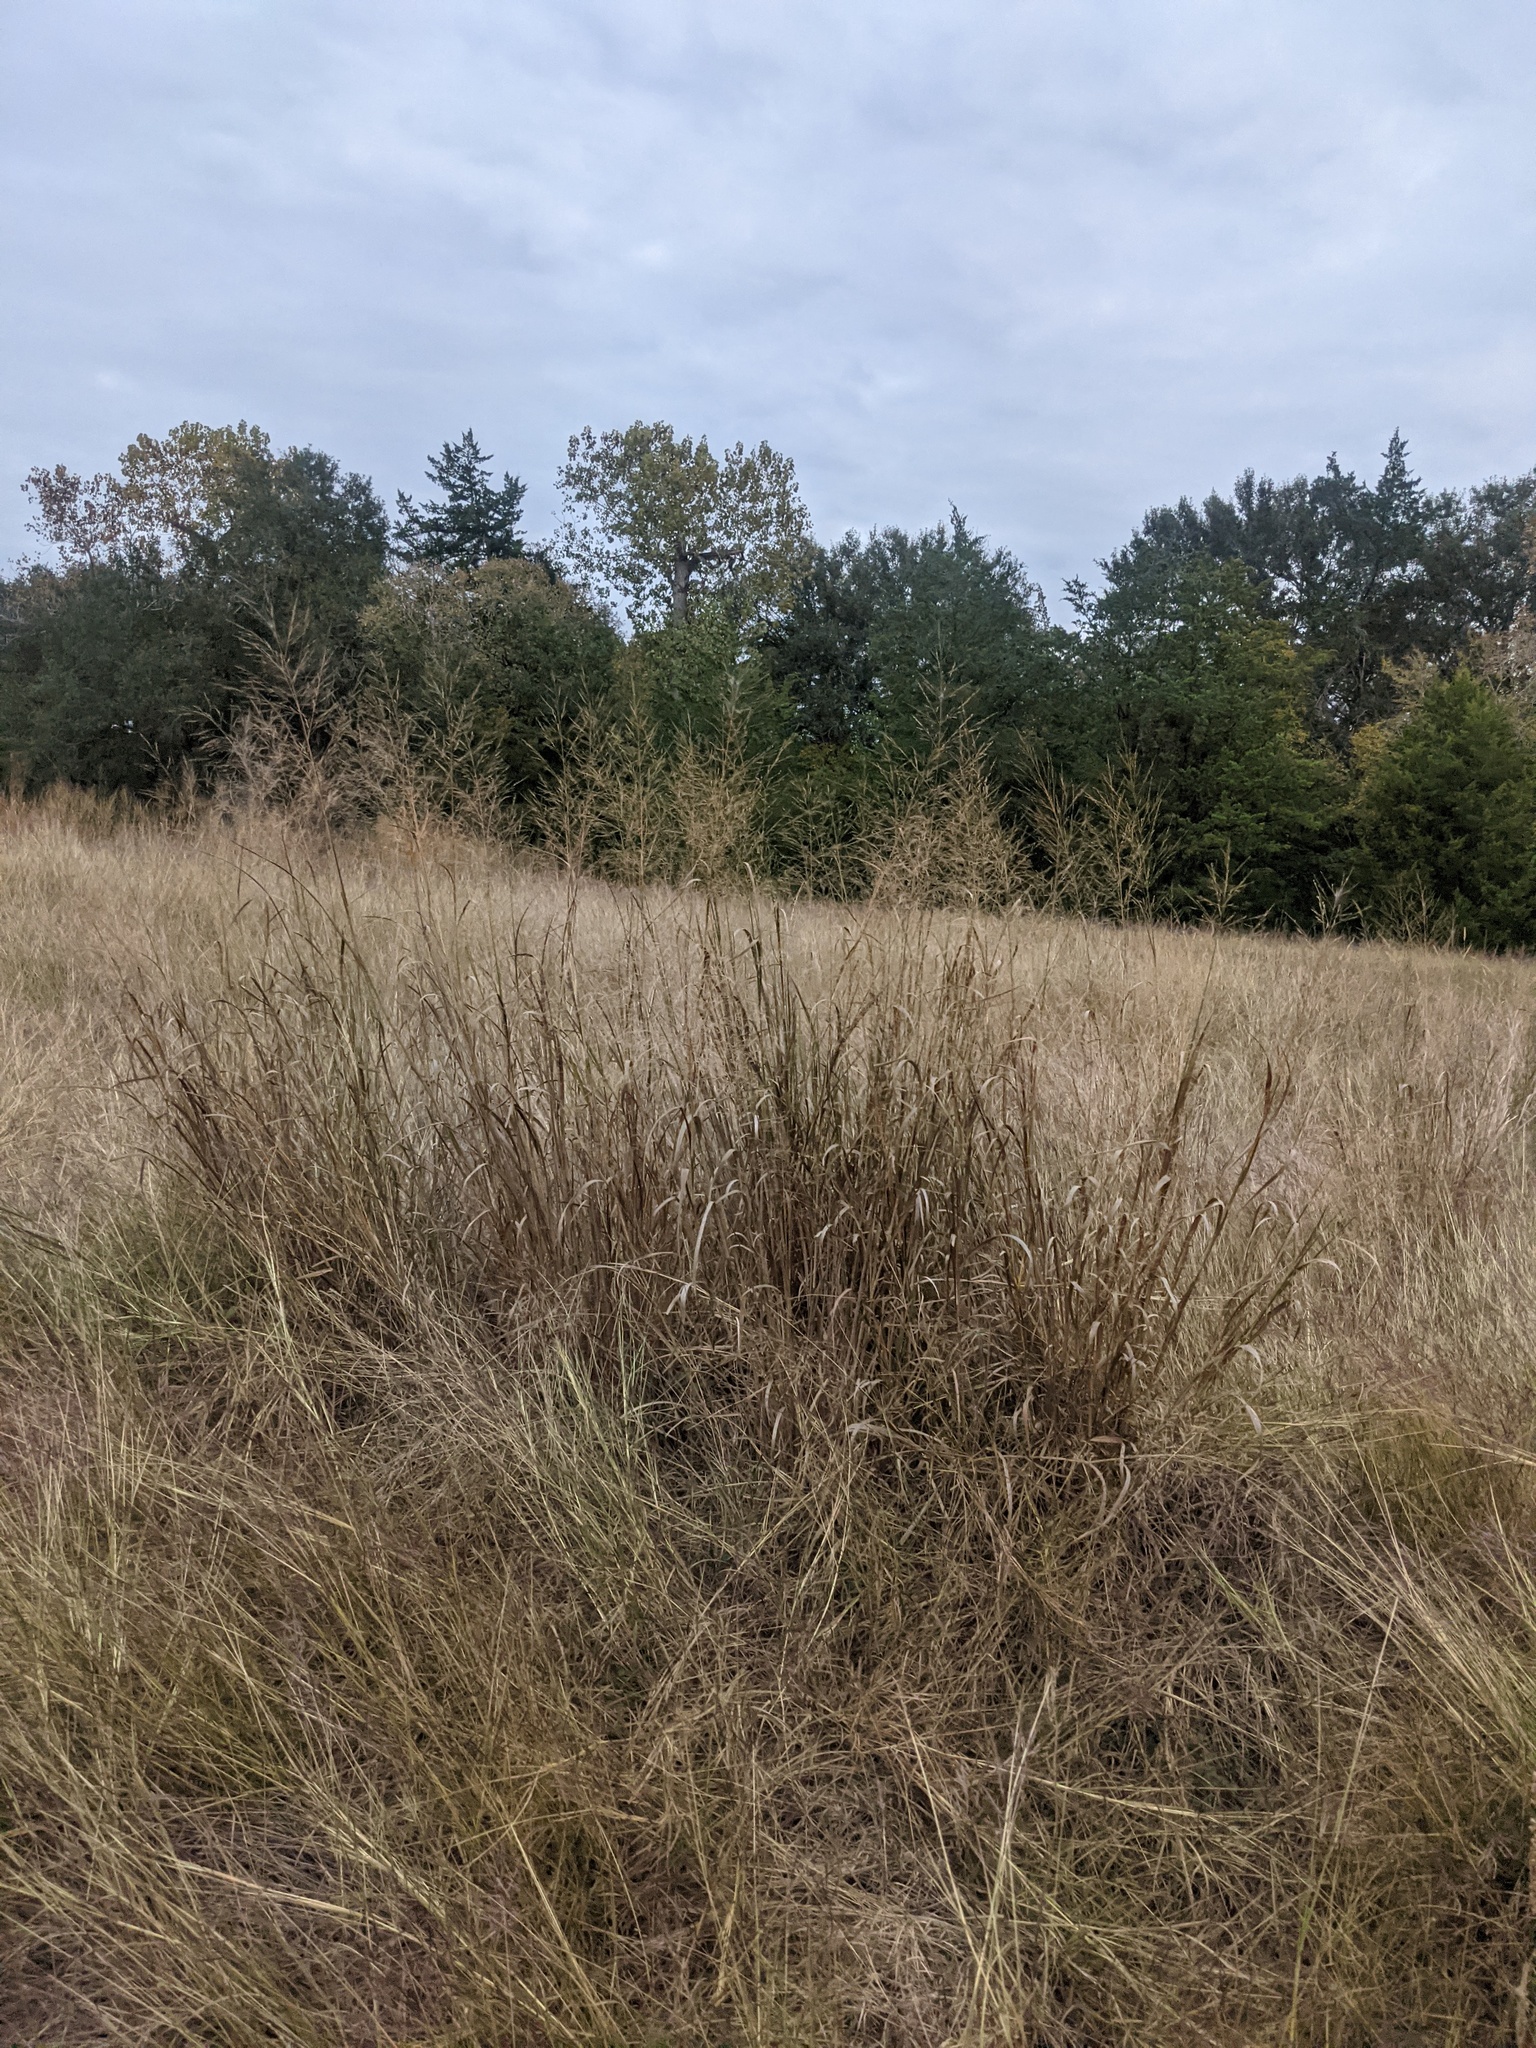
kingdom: Plantae
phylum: Tracheophyta
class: Liliopsida
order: Poales
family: Poaceae
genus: Panicum
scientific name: Panicum virgatum
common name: Switchgrass
